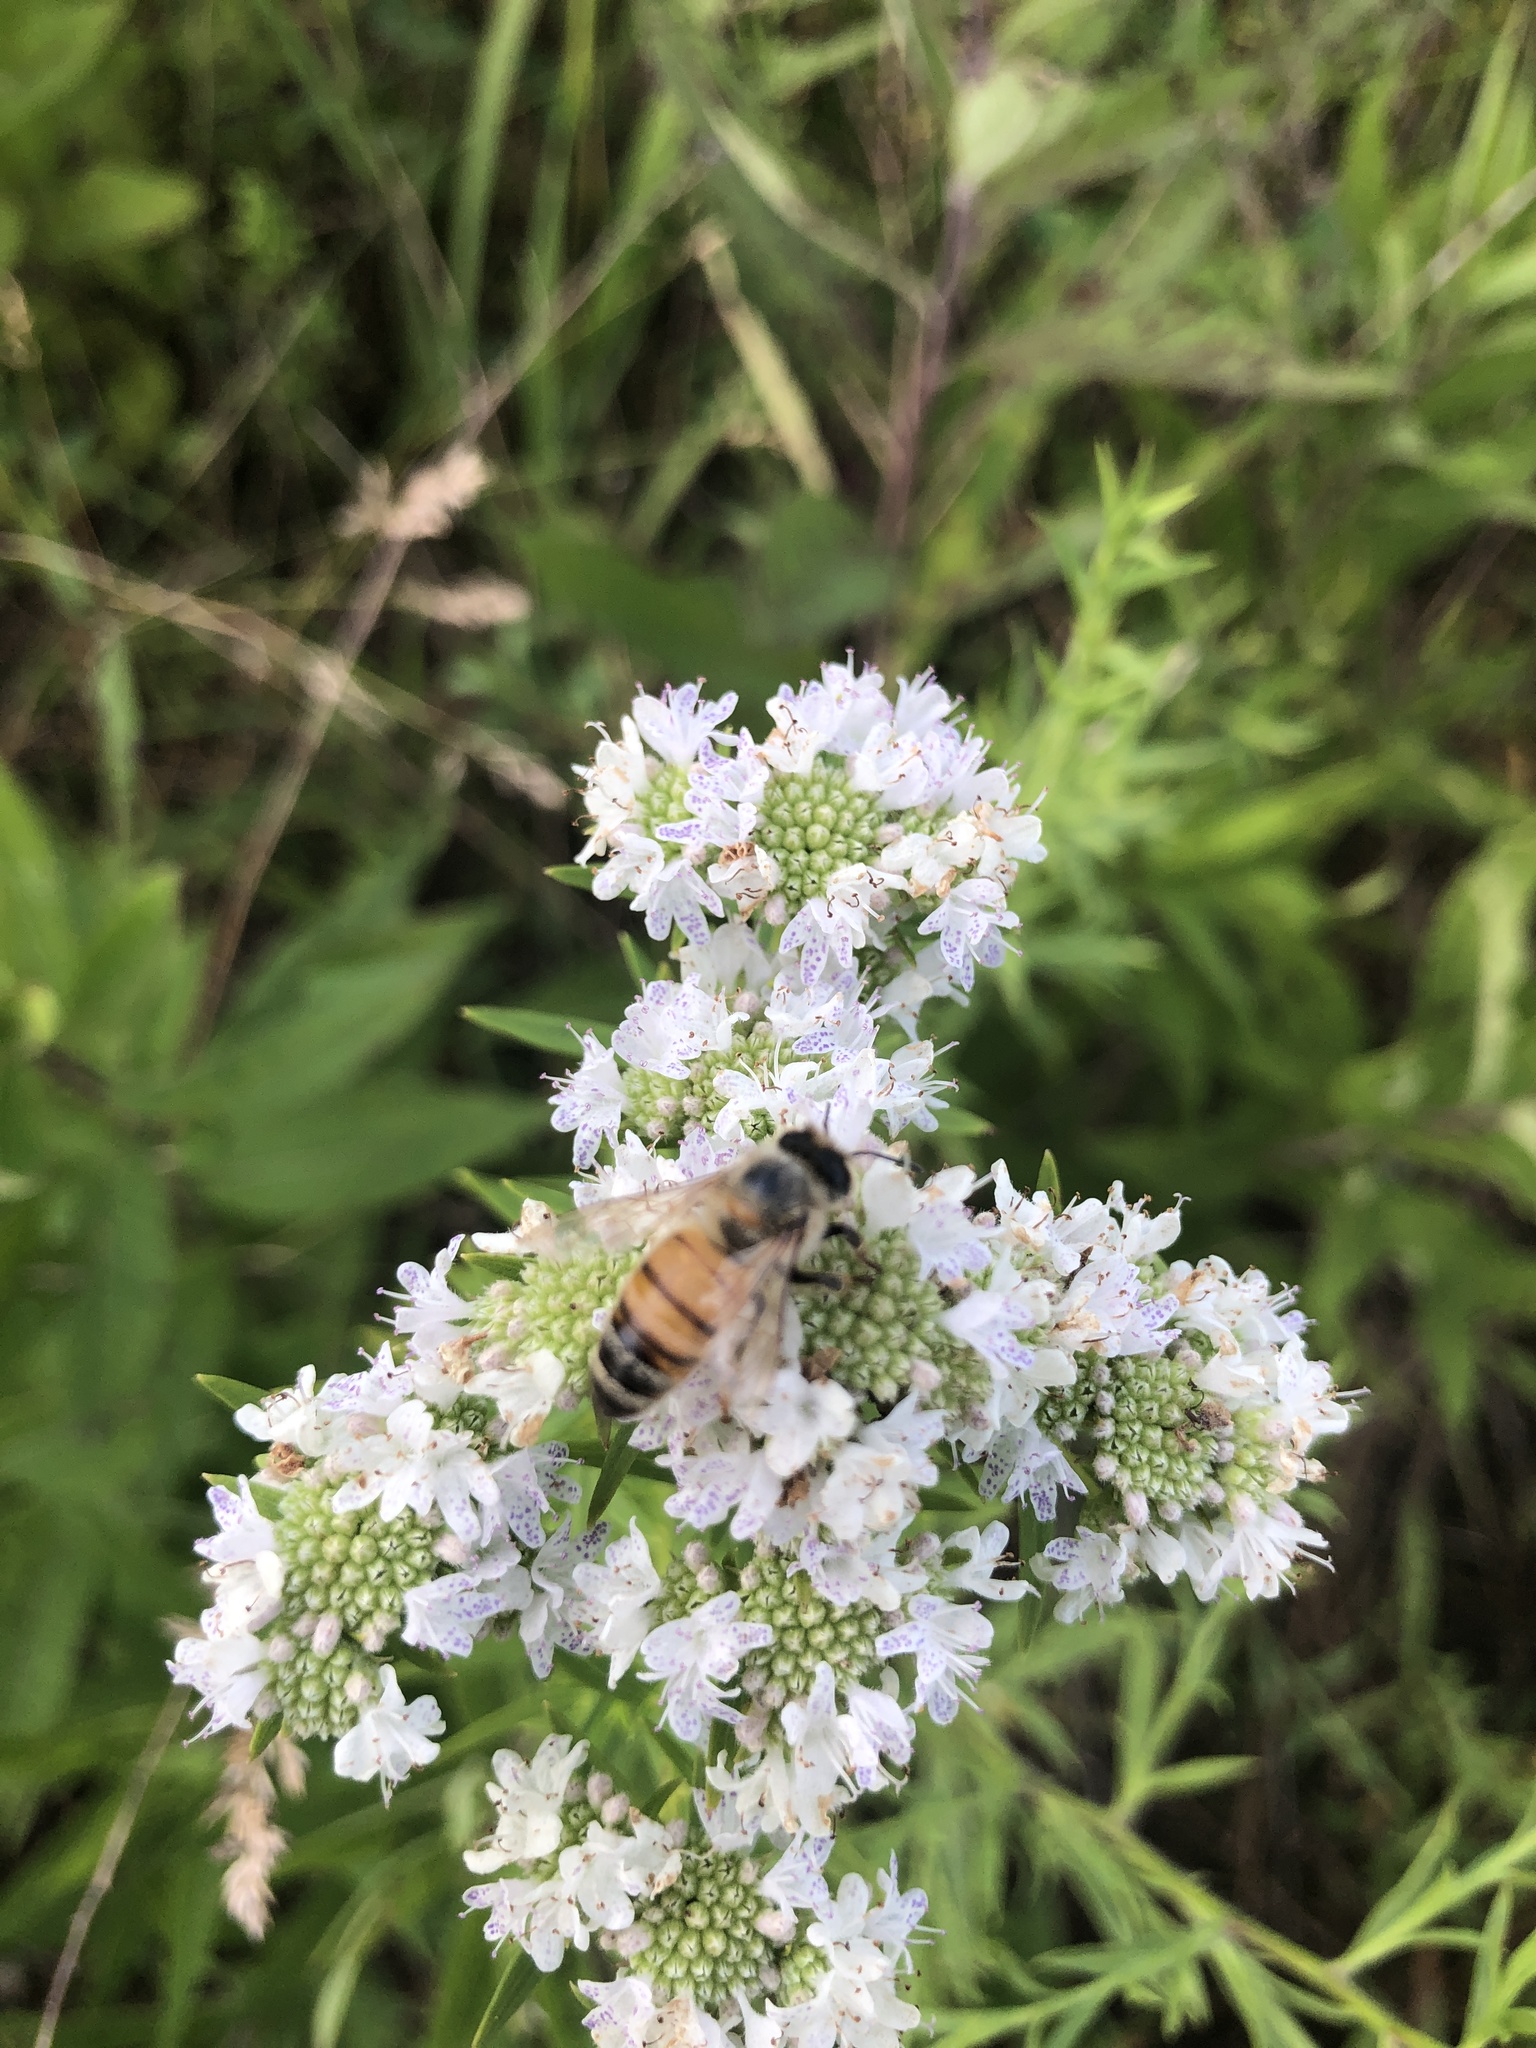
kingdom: Animalia
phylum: Arthropoda
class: Insecta
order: Hymenoptera
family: Apidae
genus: Apis
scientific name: Apis mellifera
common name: Honey bee
